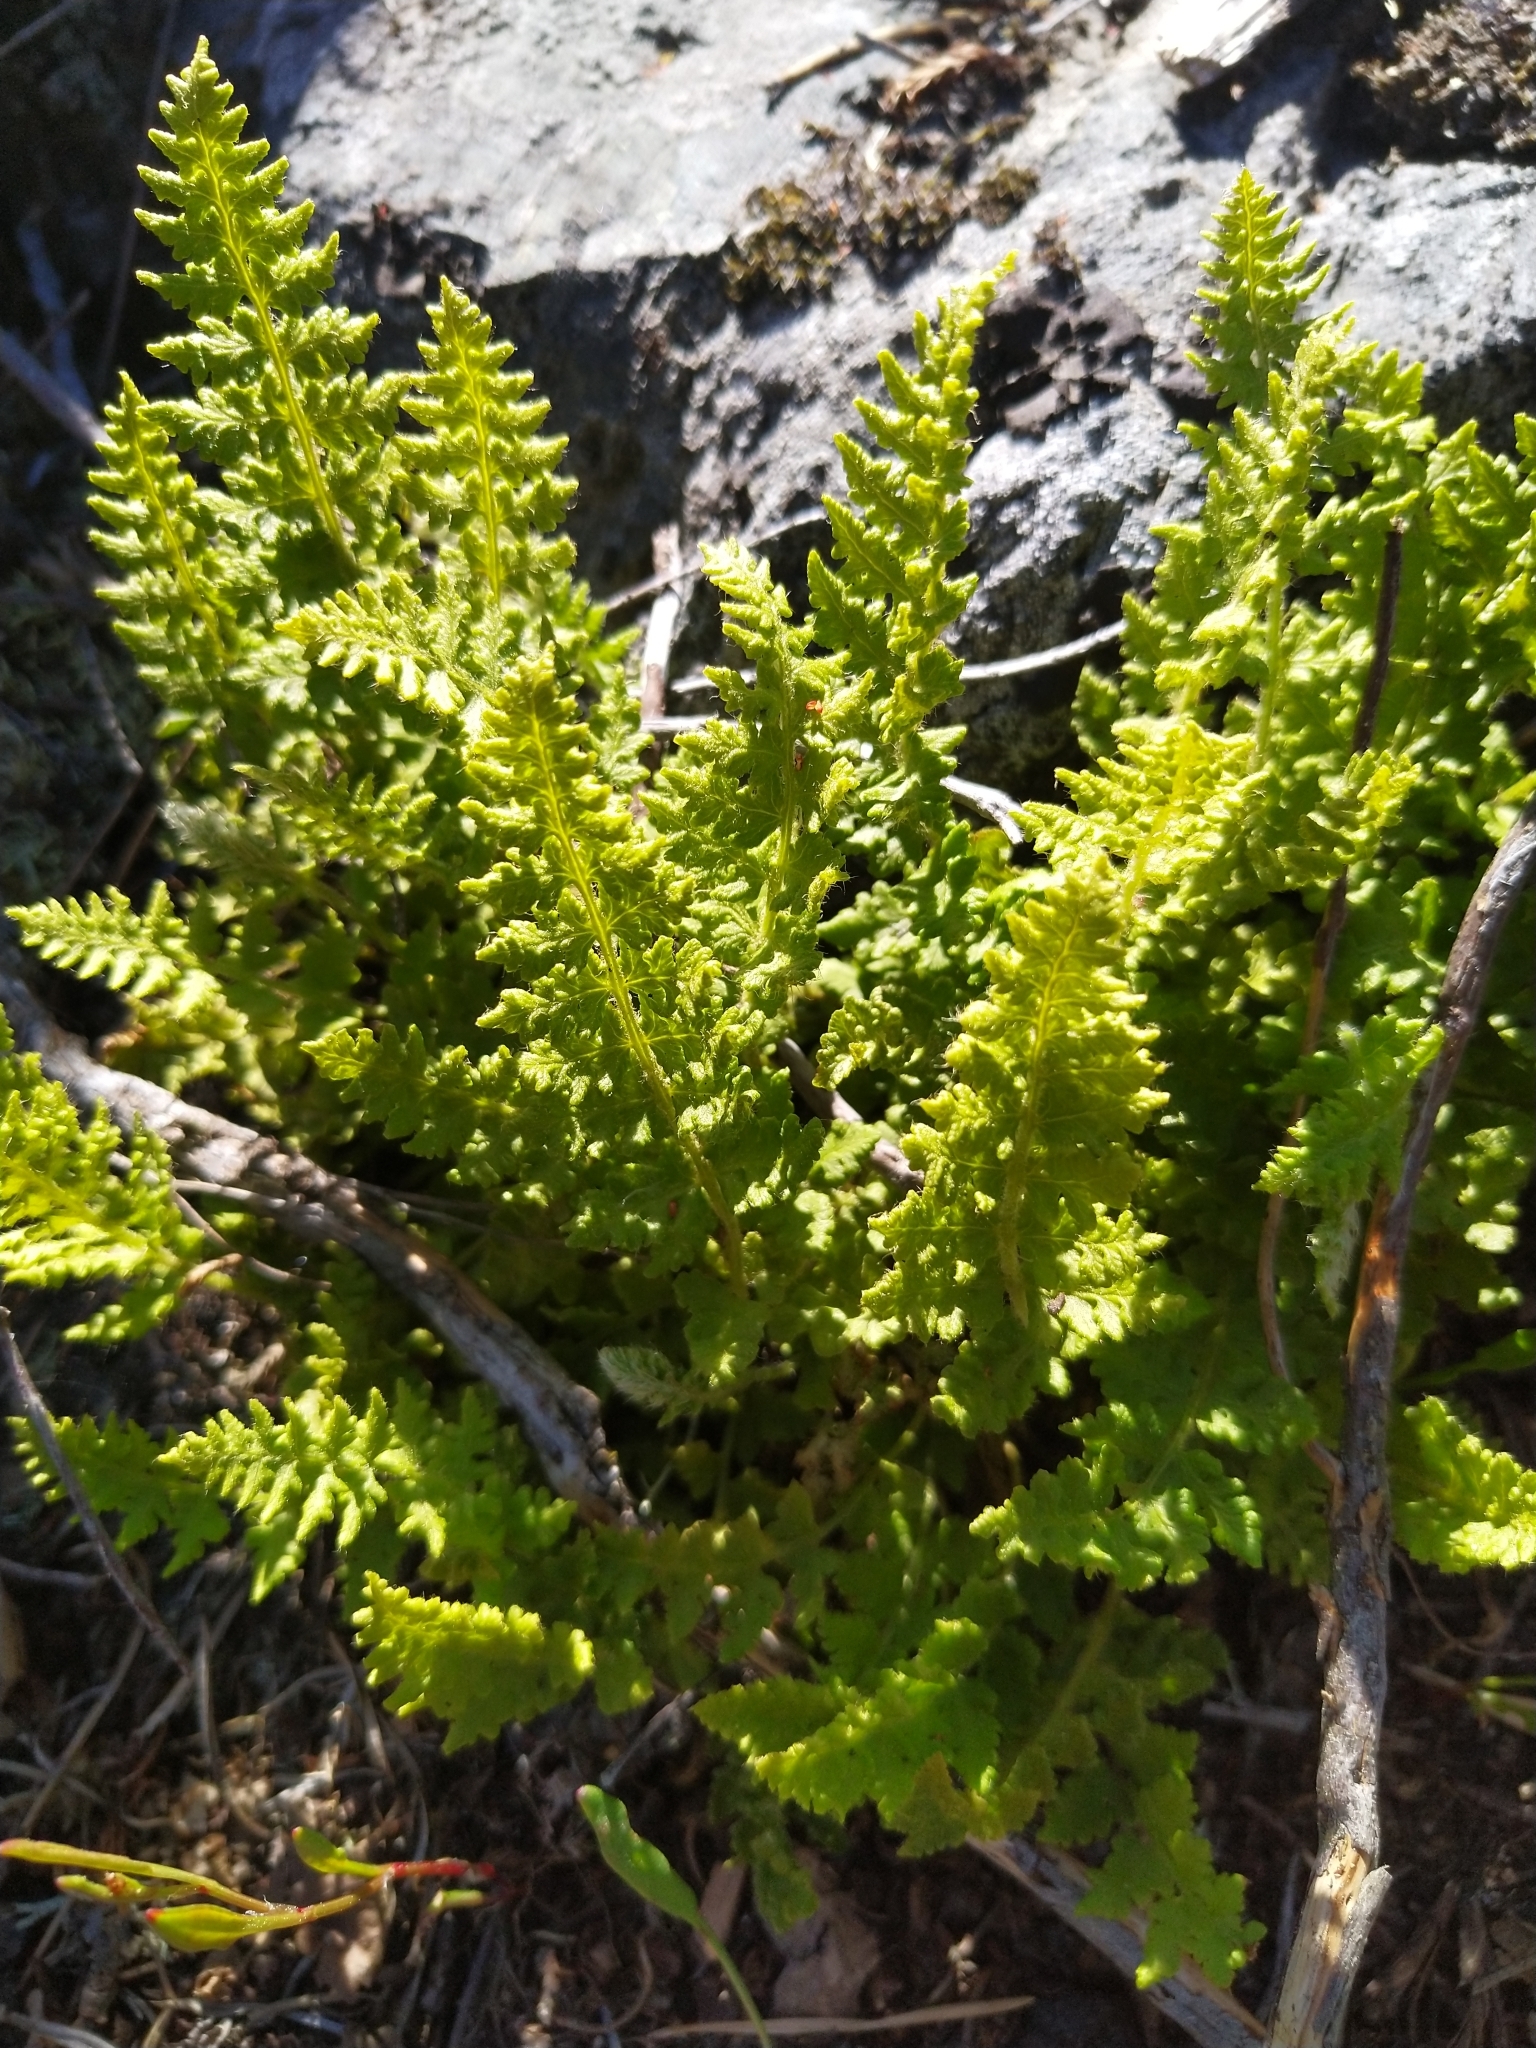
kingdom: Plantae
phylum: Tracheophyta
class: Polypodiopsida
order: Polypodiales
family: Woodsiaceae
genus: Woodsia
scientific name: Woodsia ilvensis
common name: Fragrant woodsia
